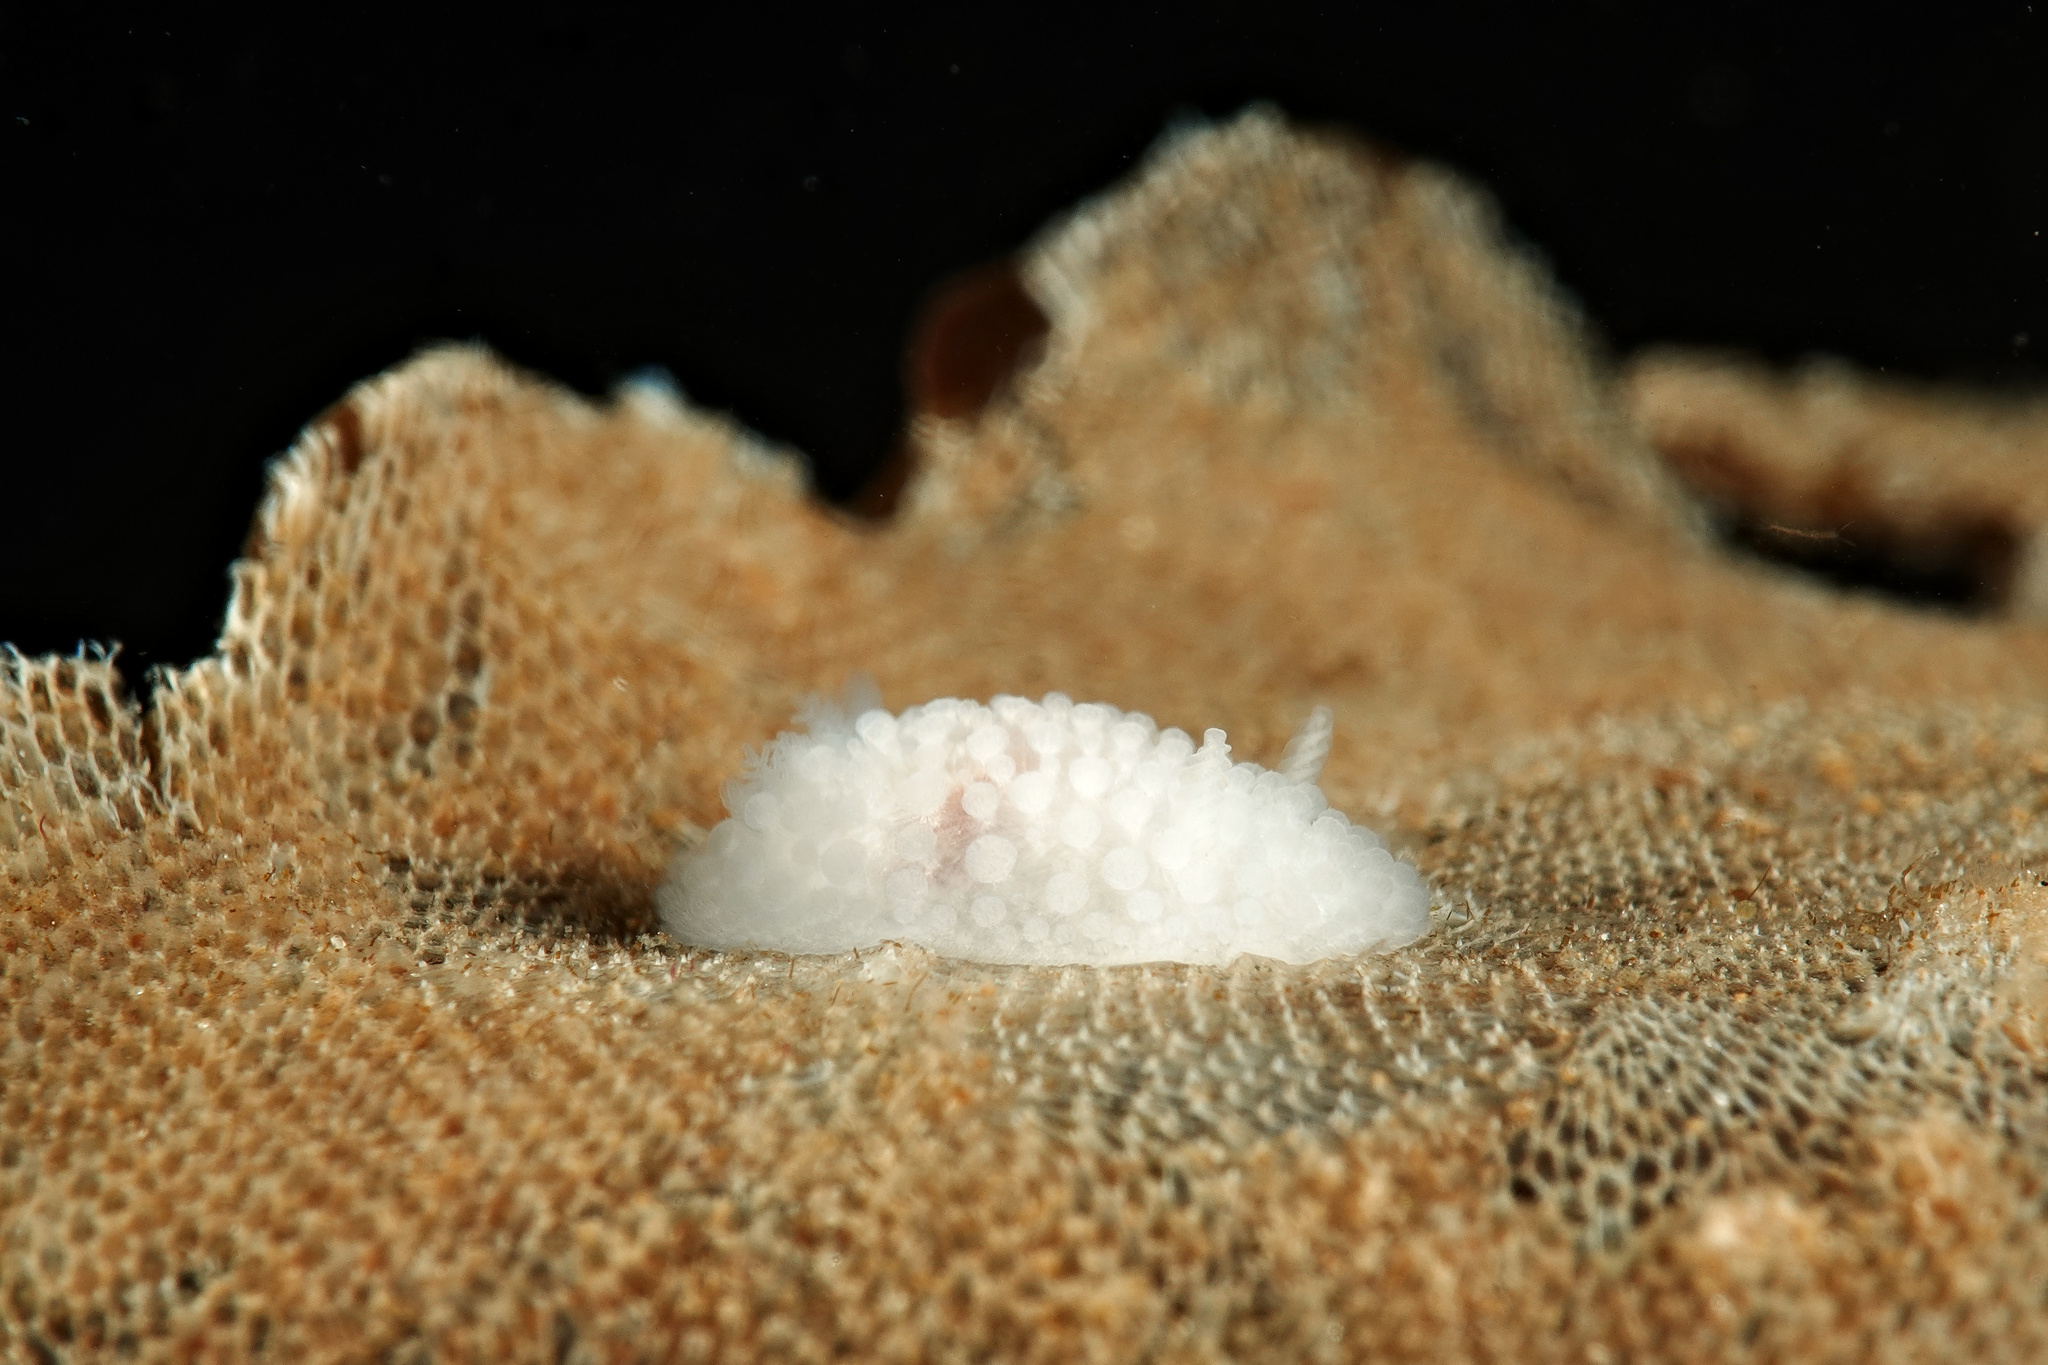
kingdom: Animalia
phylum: Mollusca
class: Gastropoda
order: Nudibranchia
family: Onchidorididae
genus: Onchidoris
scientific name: Onchidoris muricata
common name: Rough doris
